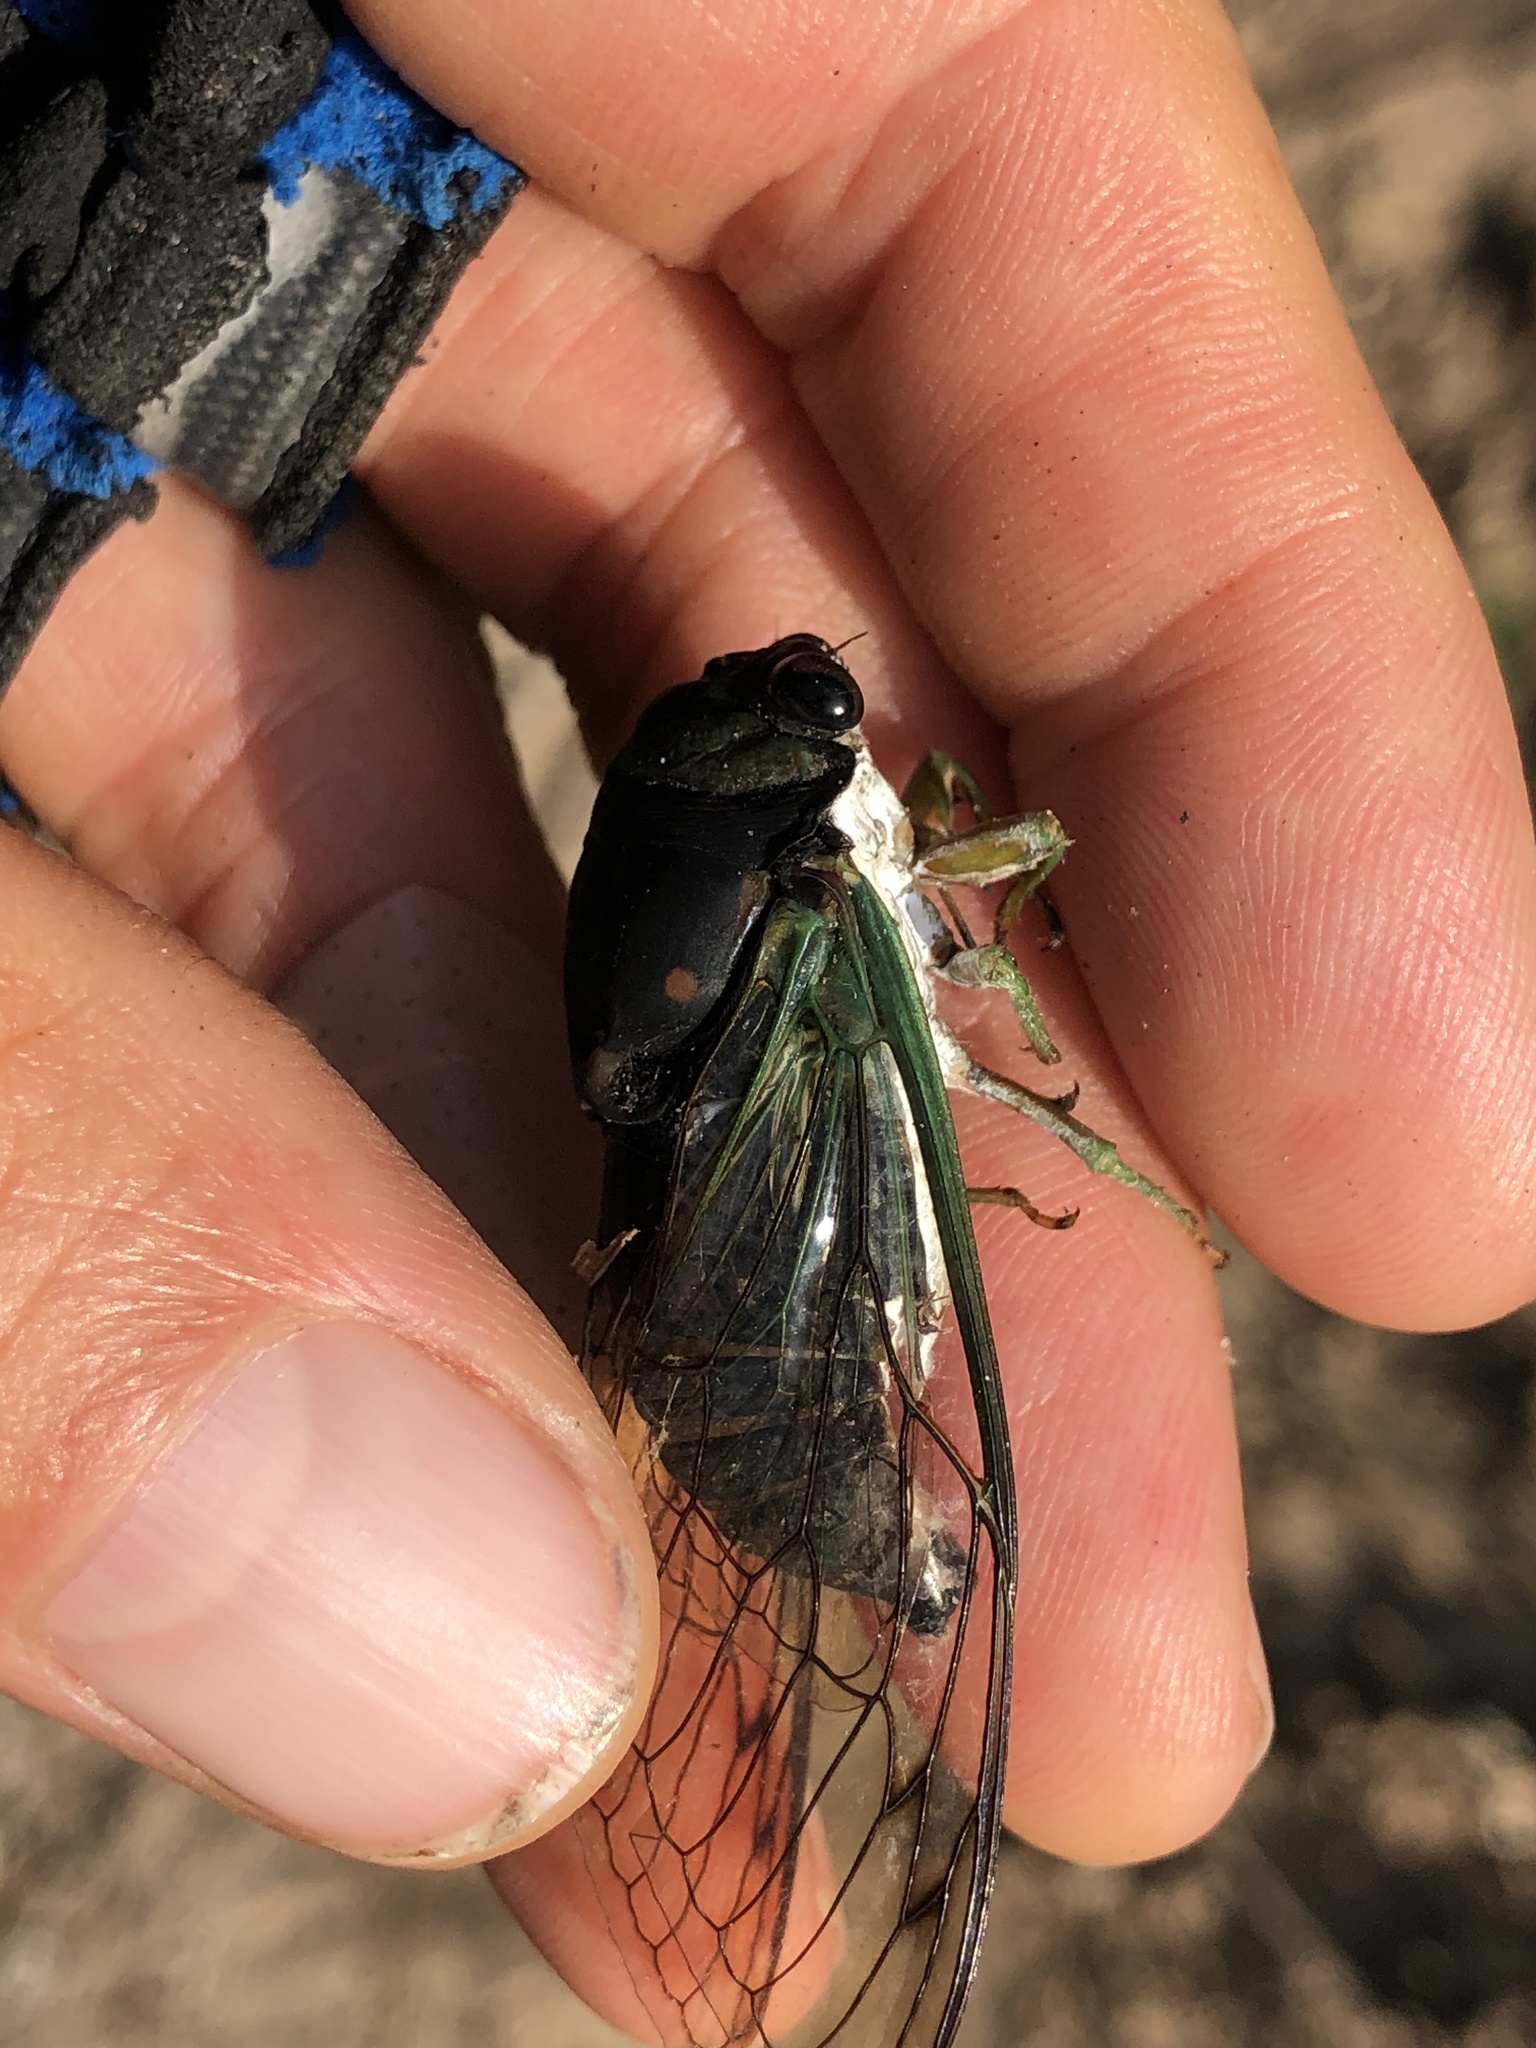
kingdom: Animalia
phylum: Arthropoda
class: Insecta
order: Hemiptera
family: Cicadidae
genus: Neotibicen
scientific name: Neotibicen tibicen
